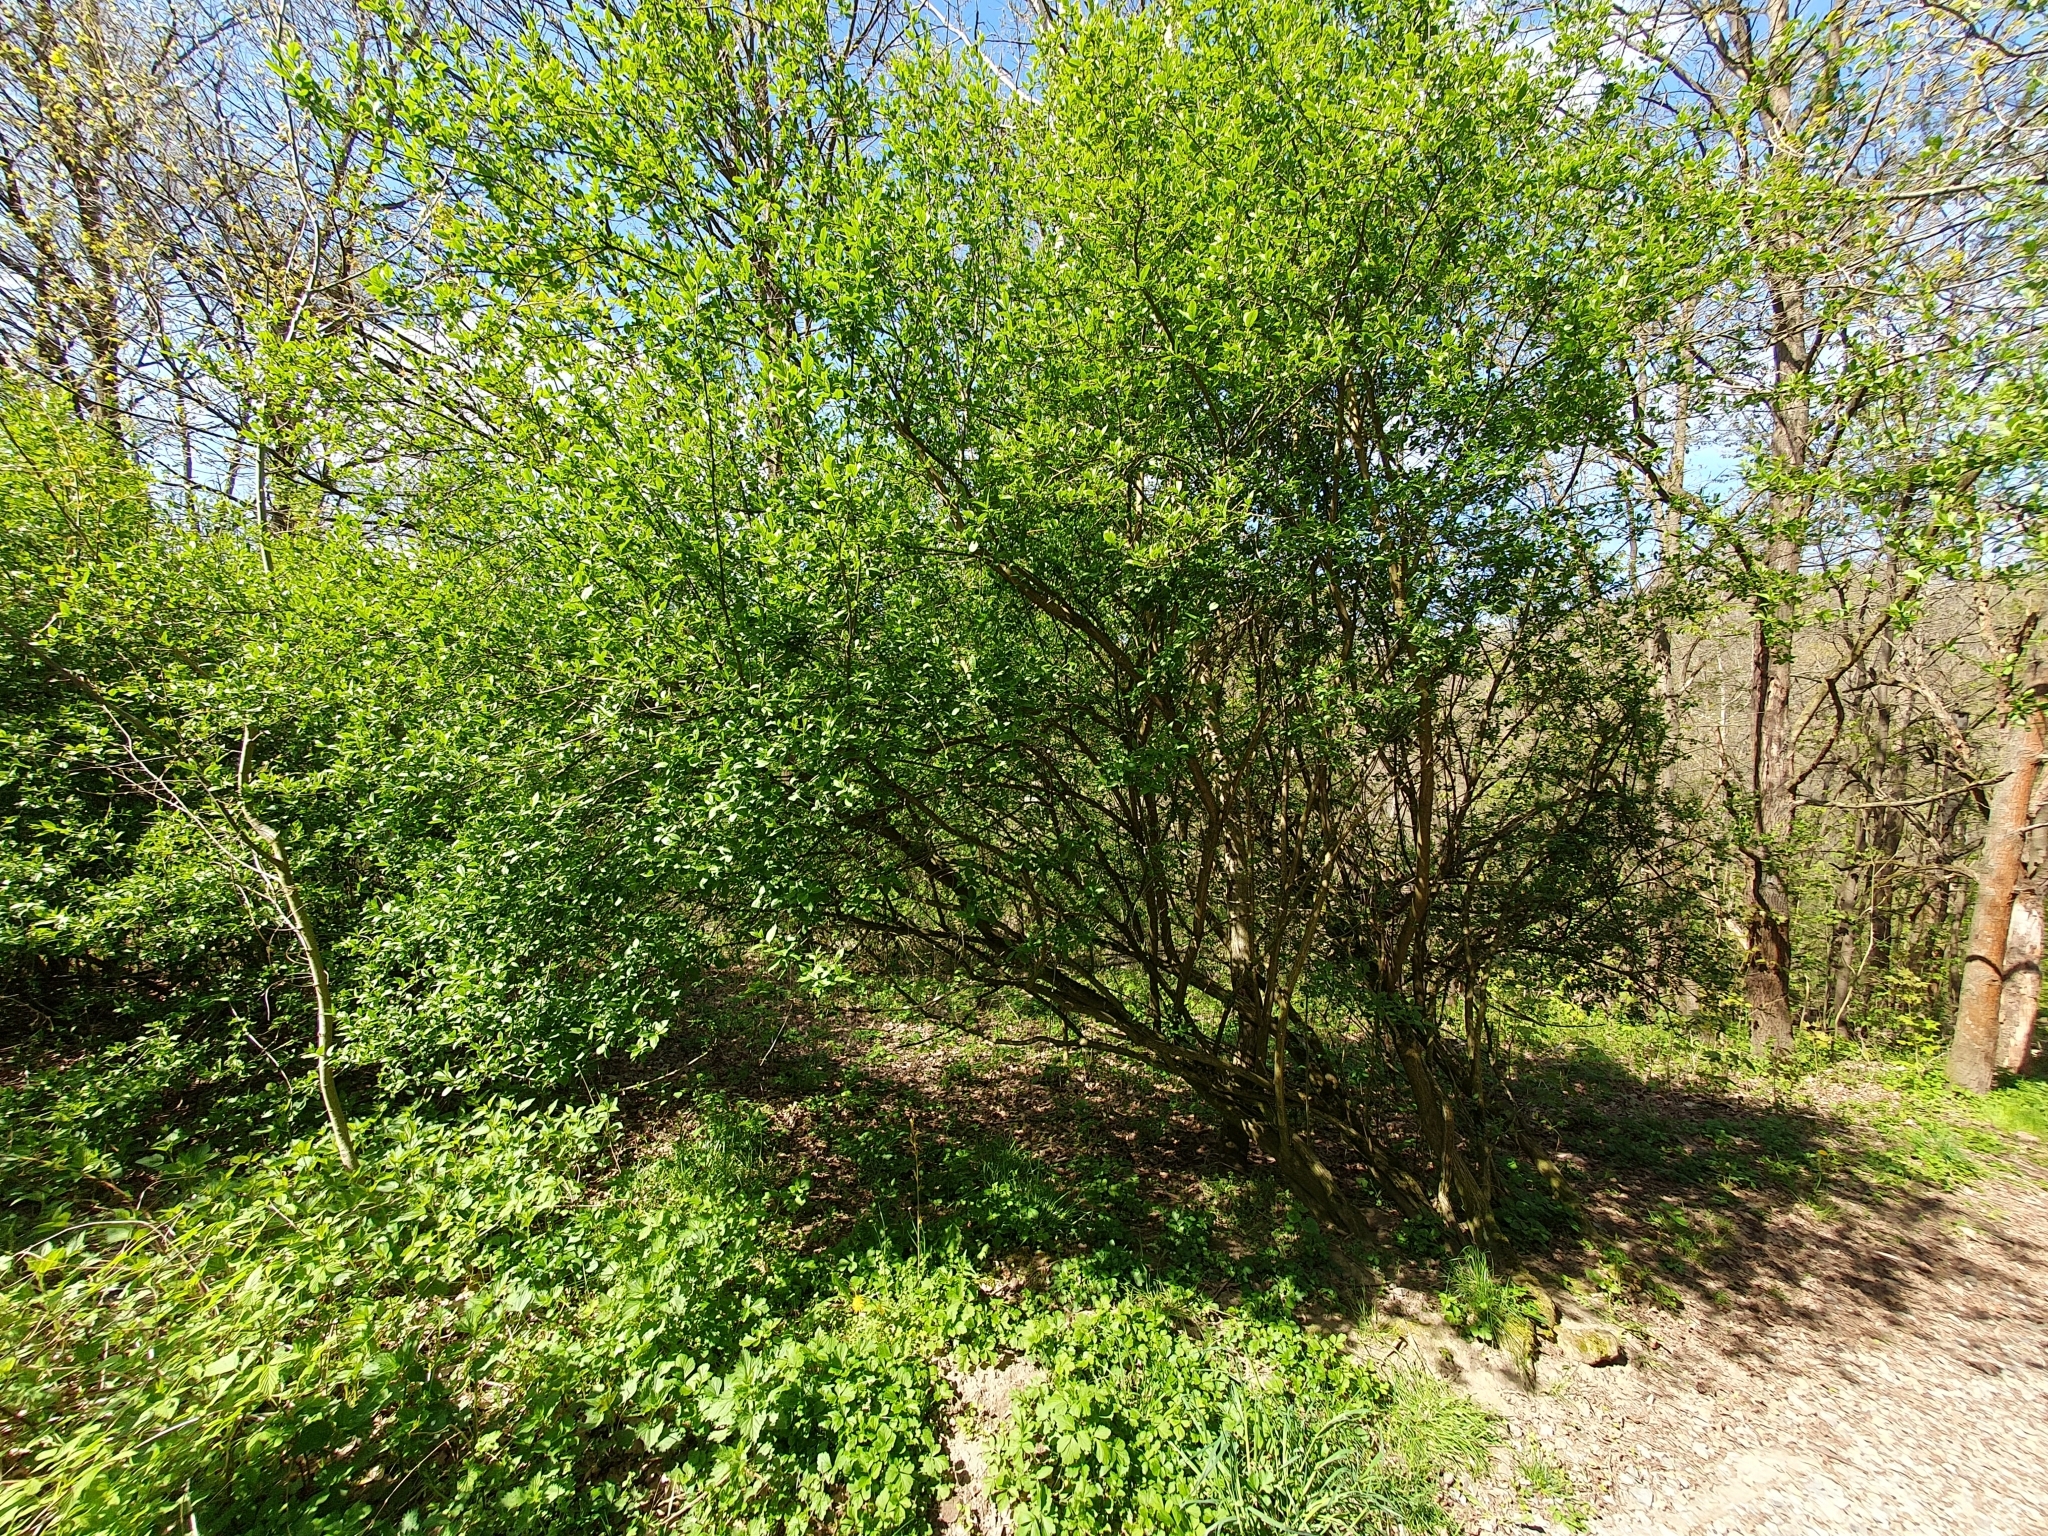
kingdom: Plantae
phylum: Tracheophyta
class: Magnoliopsida
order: Celastrales
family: Celastraceae
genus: Euonymus
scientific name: Euonymus europaeus
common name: Spindle
